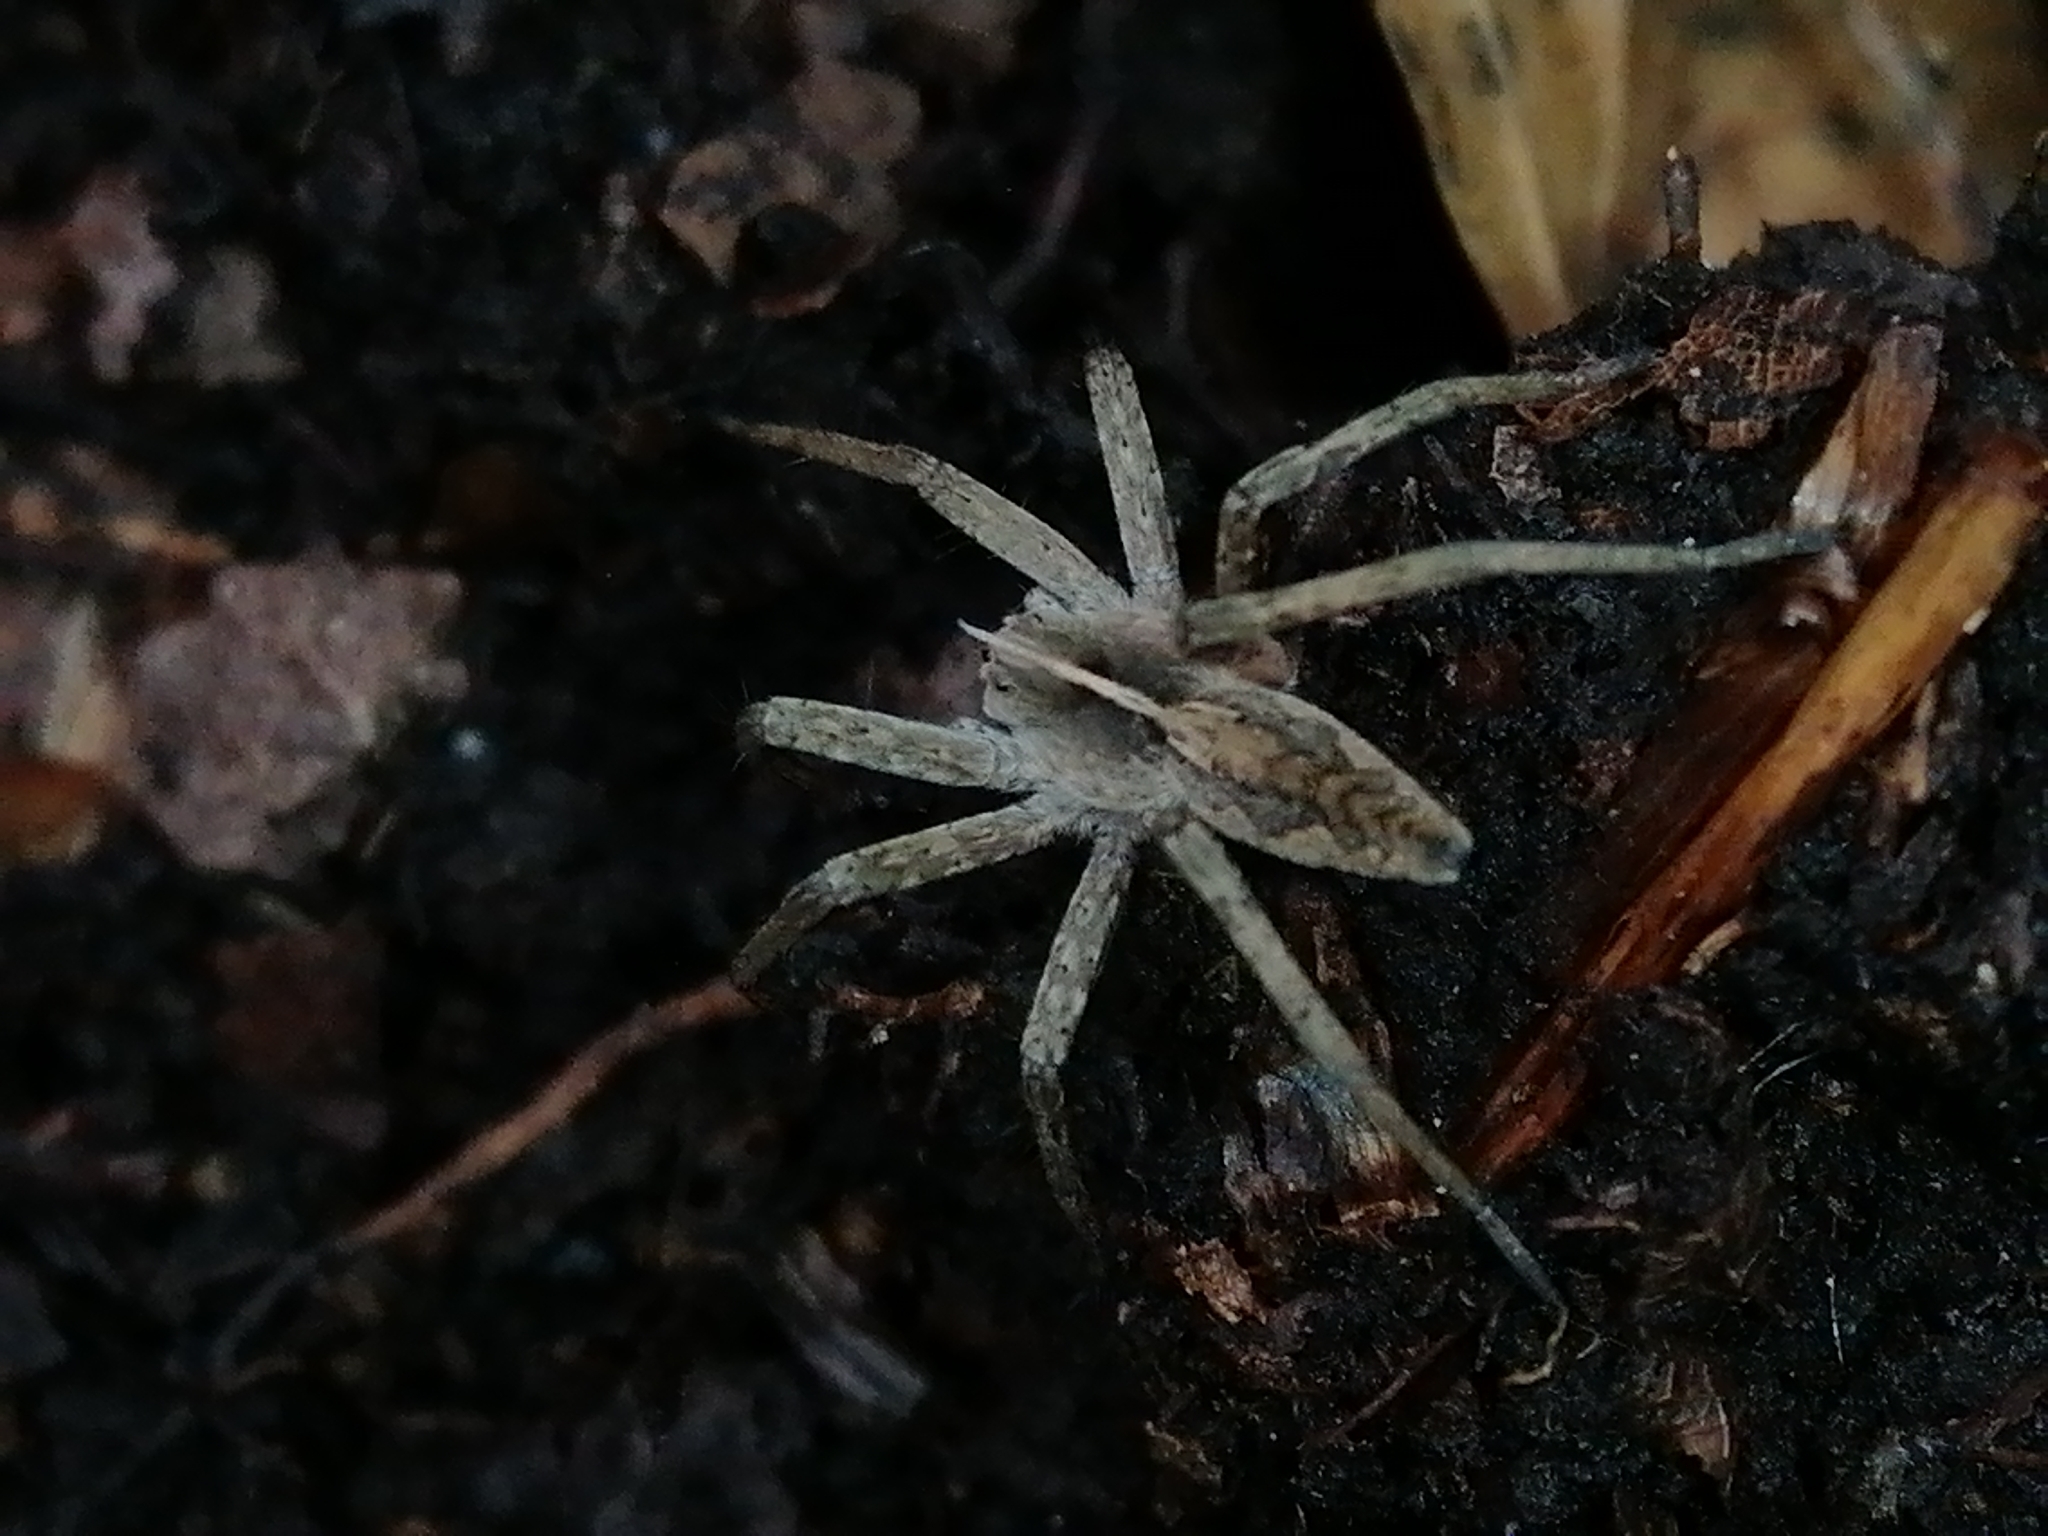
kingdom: Animalia
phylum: Arthropoda
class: Arachnida
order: Araneae
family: Pisauridae
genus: Pisaura
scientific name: Pisaura mirabilis
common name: Tent spider
